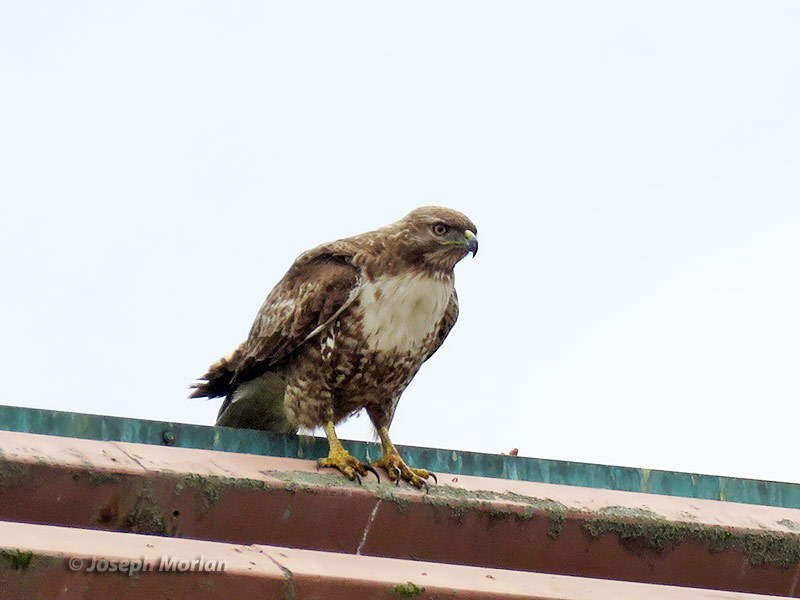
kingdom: Animalia
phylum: Chordata
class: Aves
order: Accipitriformes
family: Accipitridae
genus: Buteo
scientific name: Buteo jamaicensis
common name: Red-tailed hawk
